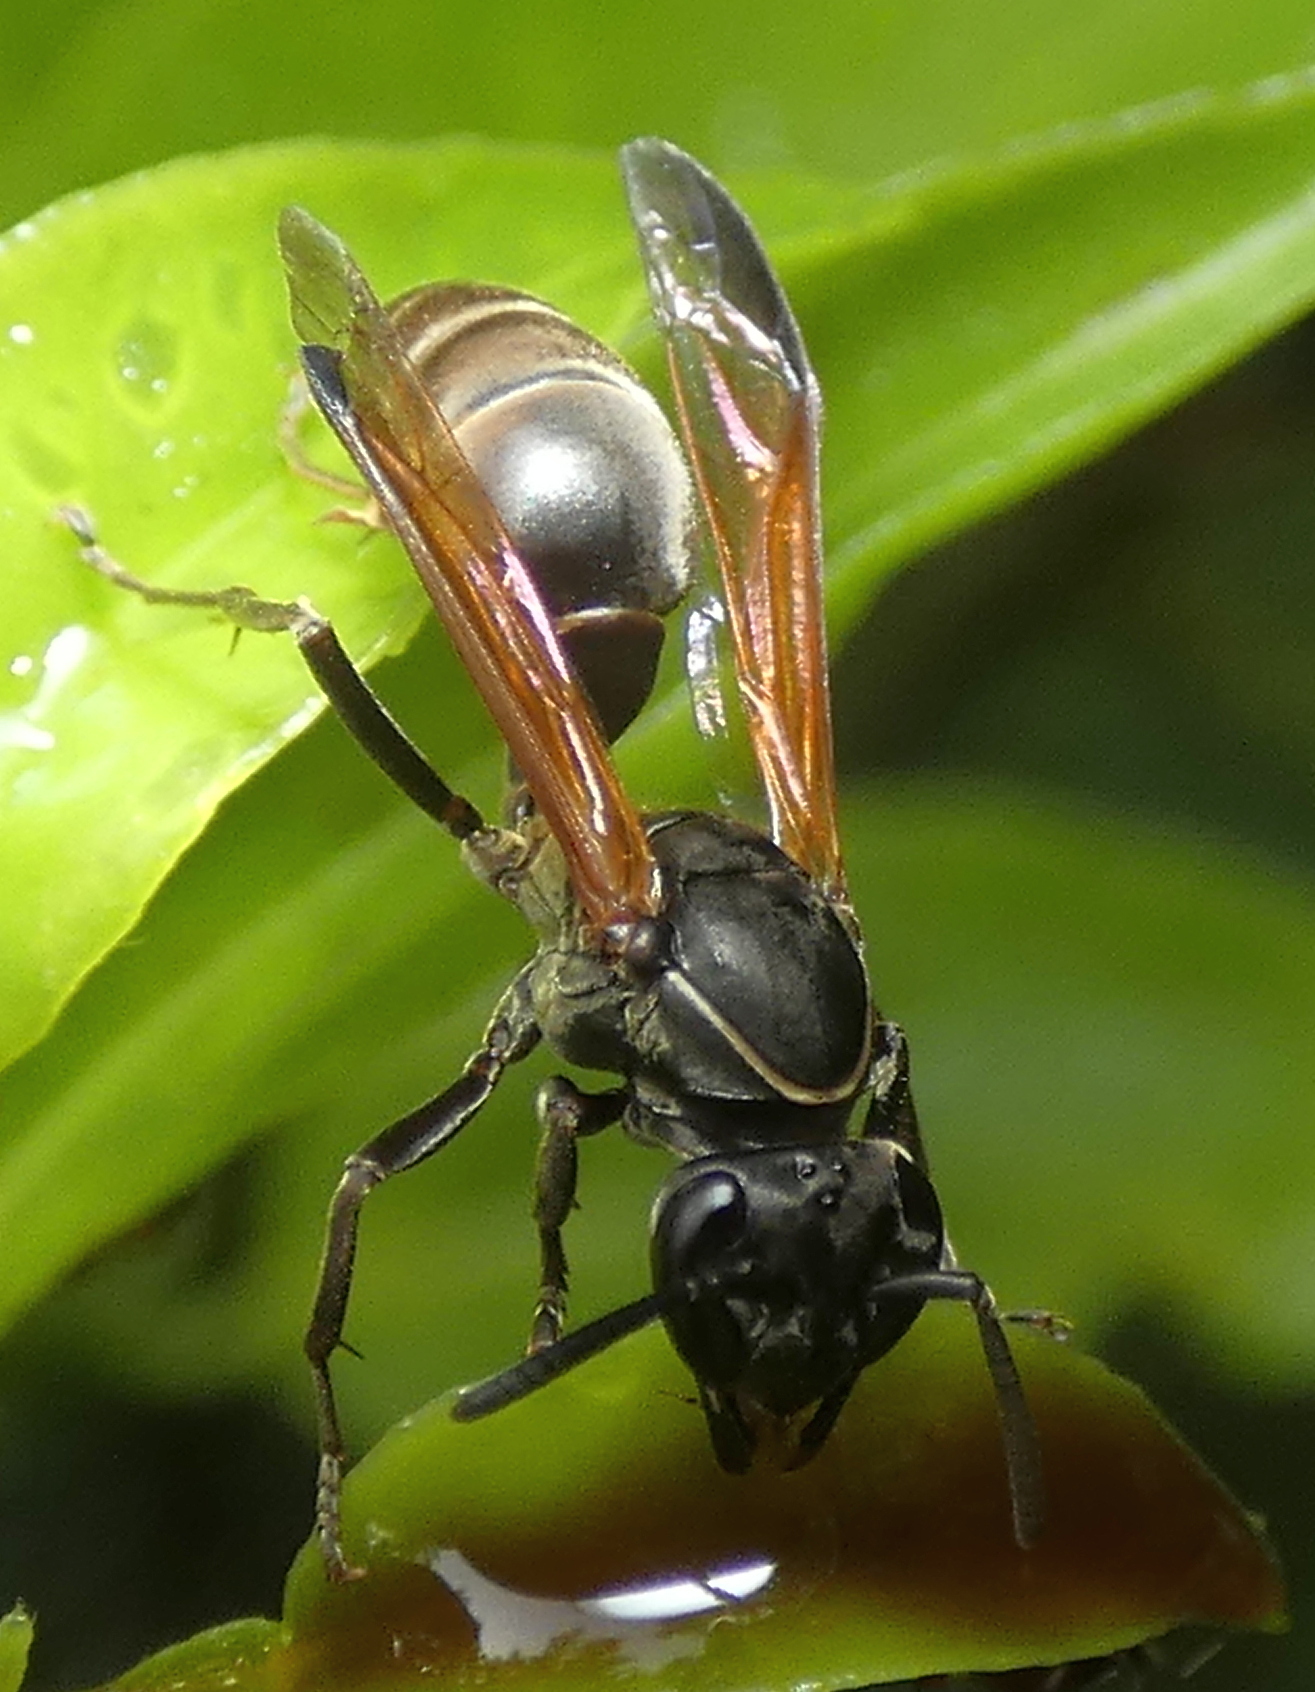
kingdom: Animalia
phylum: Arthropoda
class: Insecta
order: Hymenoptera
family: Eumenidae
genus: Polybia
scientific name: Polybia rejecta
